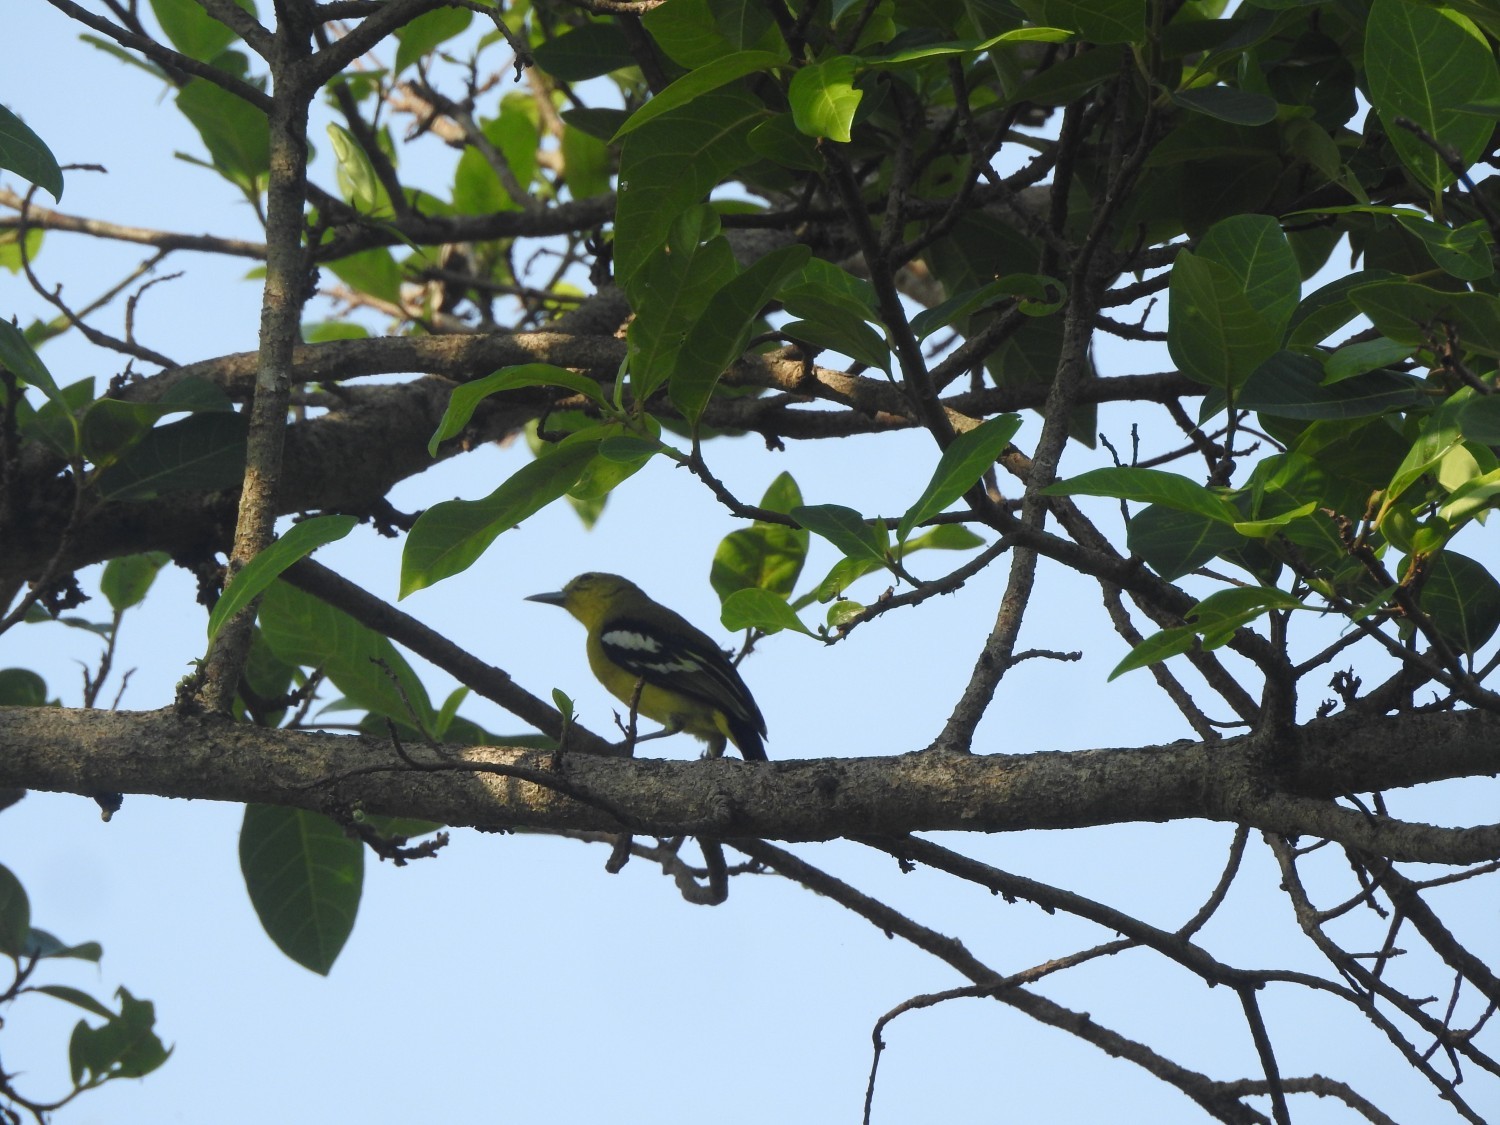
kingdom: Animalia
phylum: Chordata
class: Aves
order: Passeriformes
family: Aegithinidae
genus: Aegithina
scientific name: Aegithina tiphia
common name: Common iora
